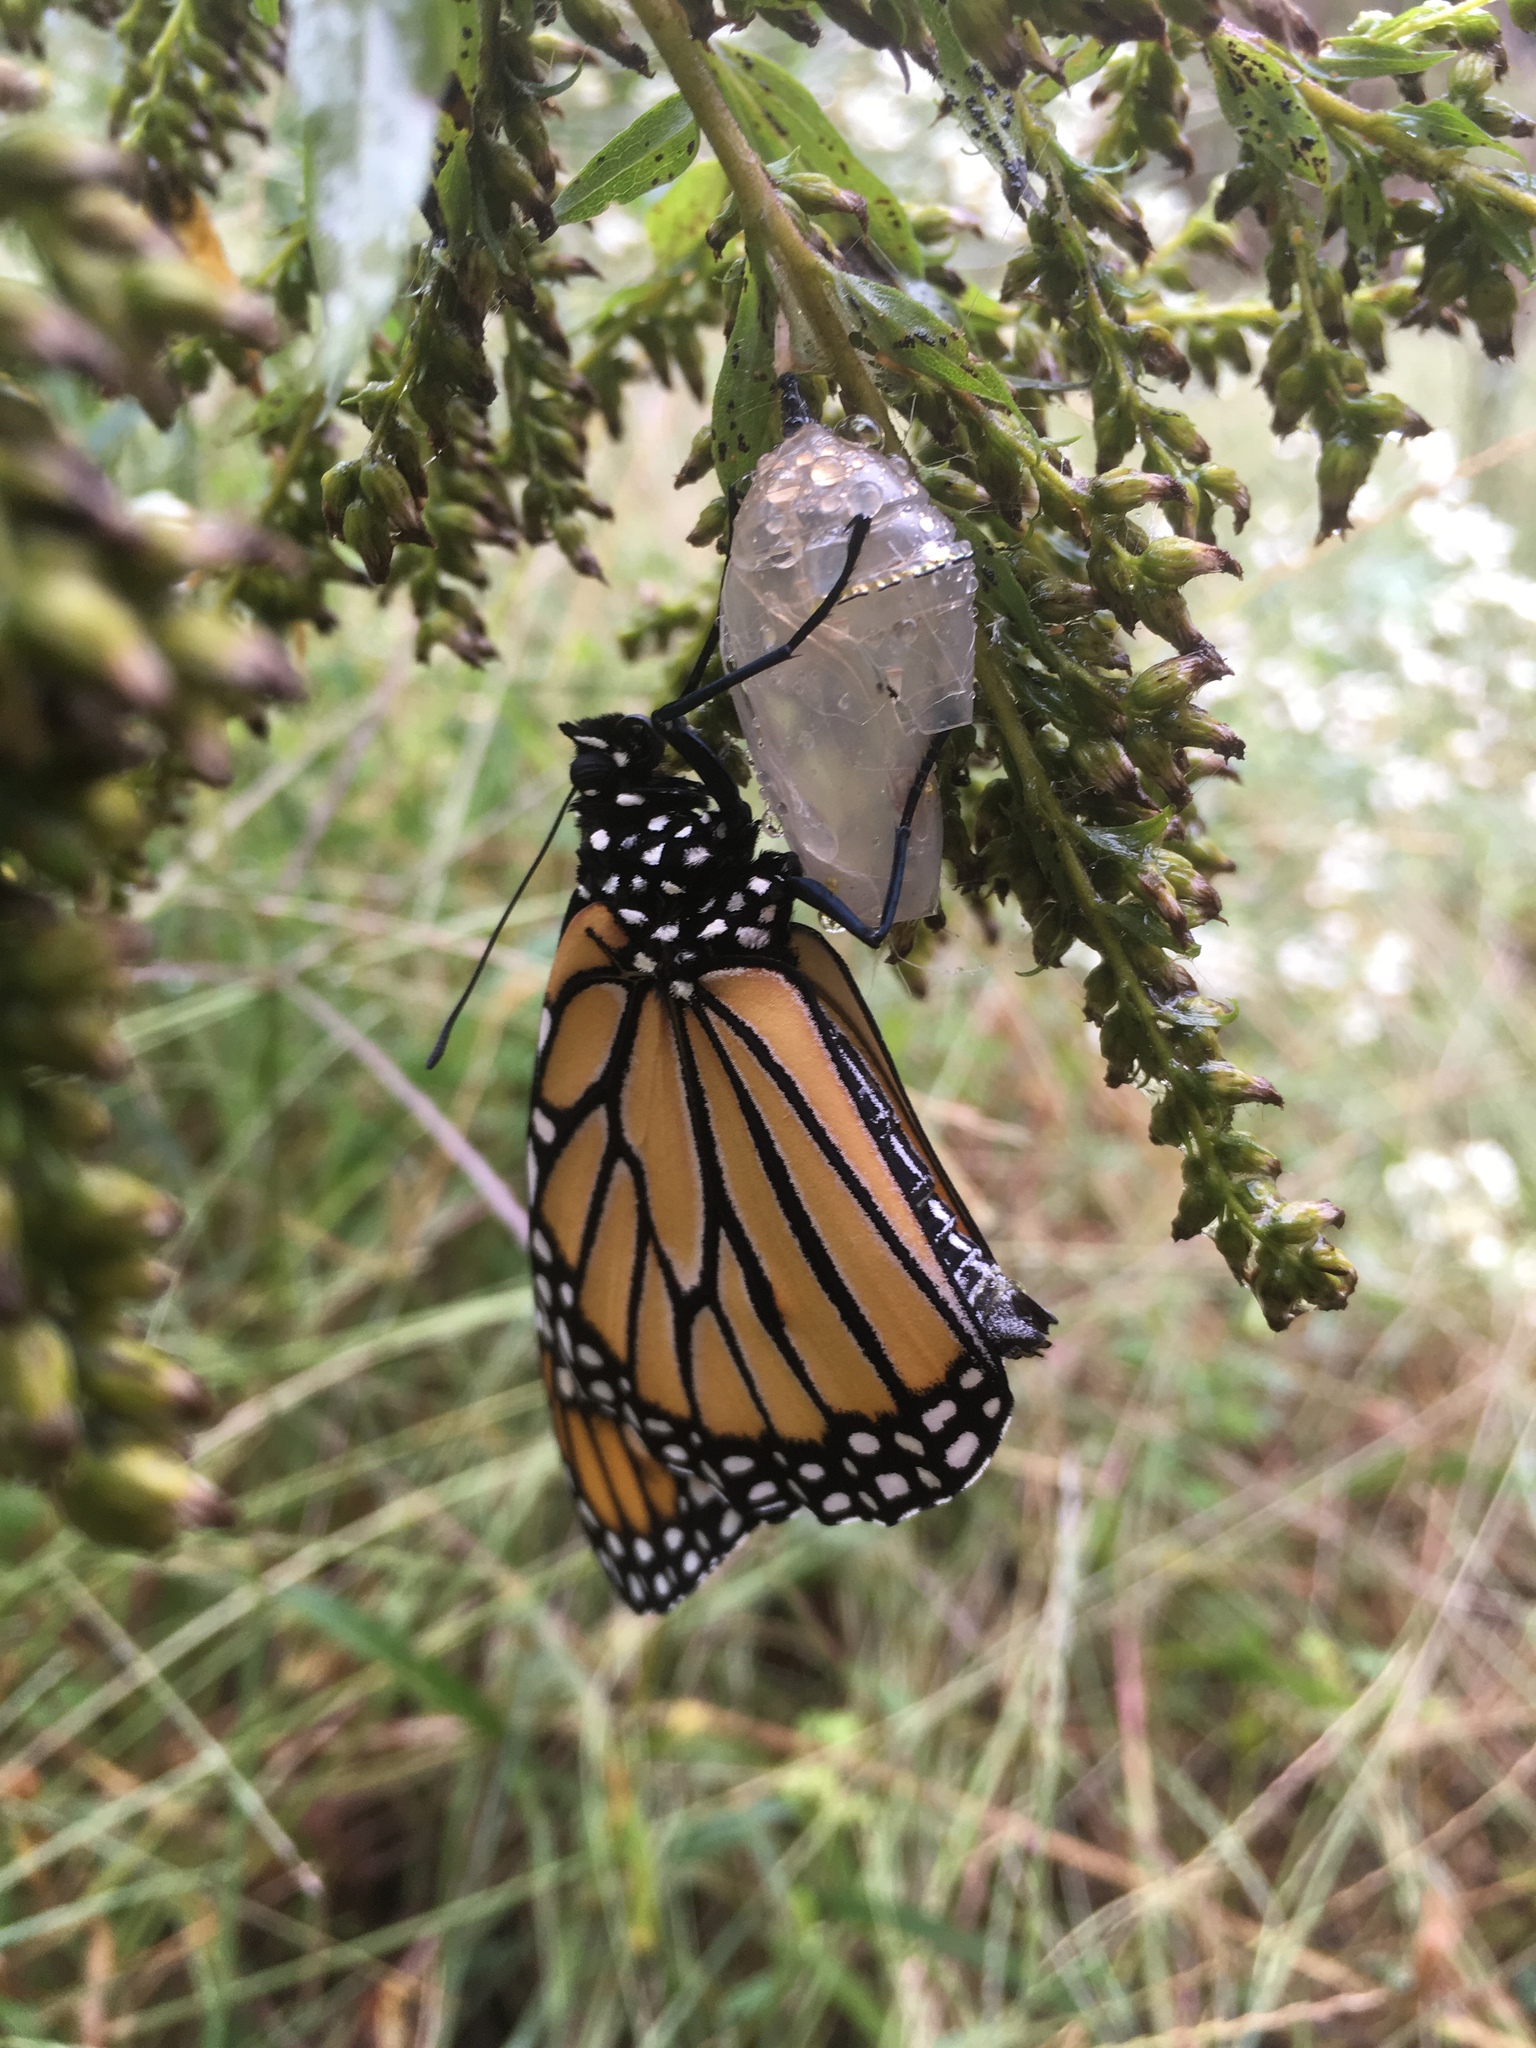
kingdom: Animalia
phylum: Arthropoda
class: Insecta
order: Lepidoptera
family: Nymphalidae
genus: Danaus
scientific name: Danaus plexippus
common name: Monarch
